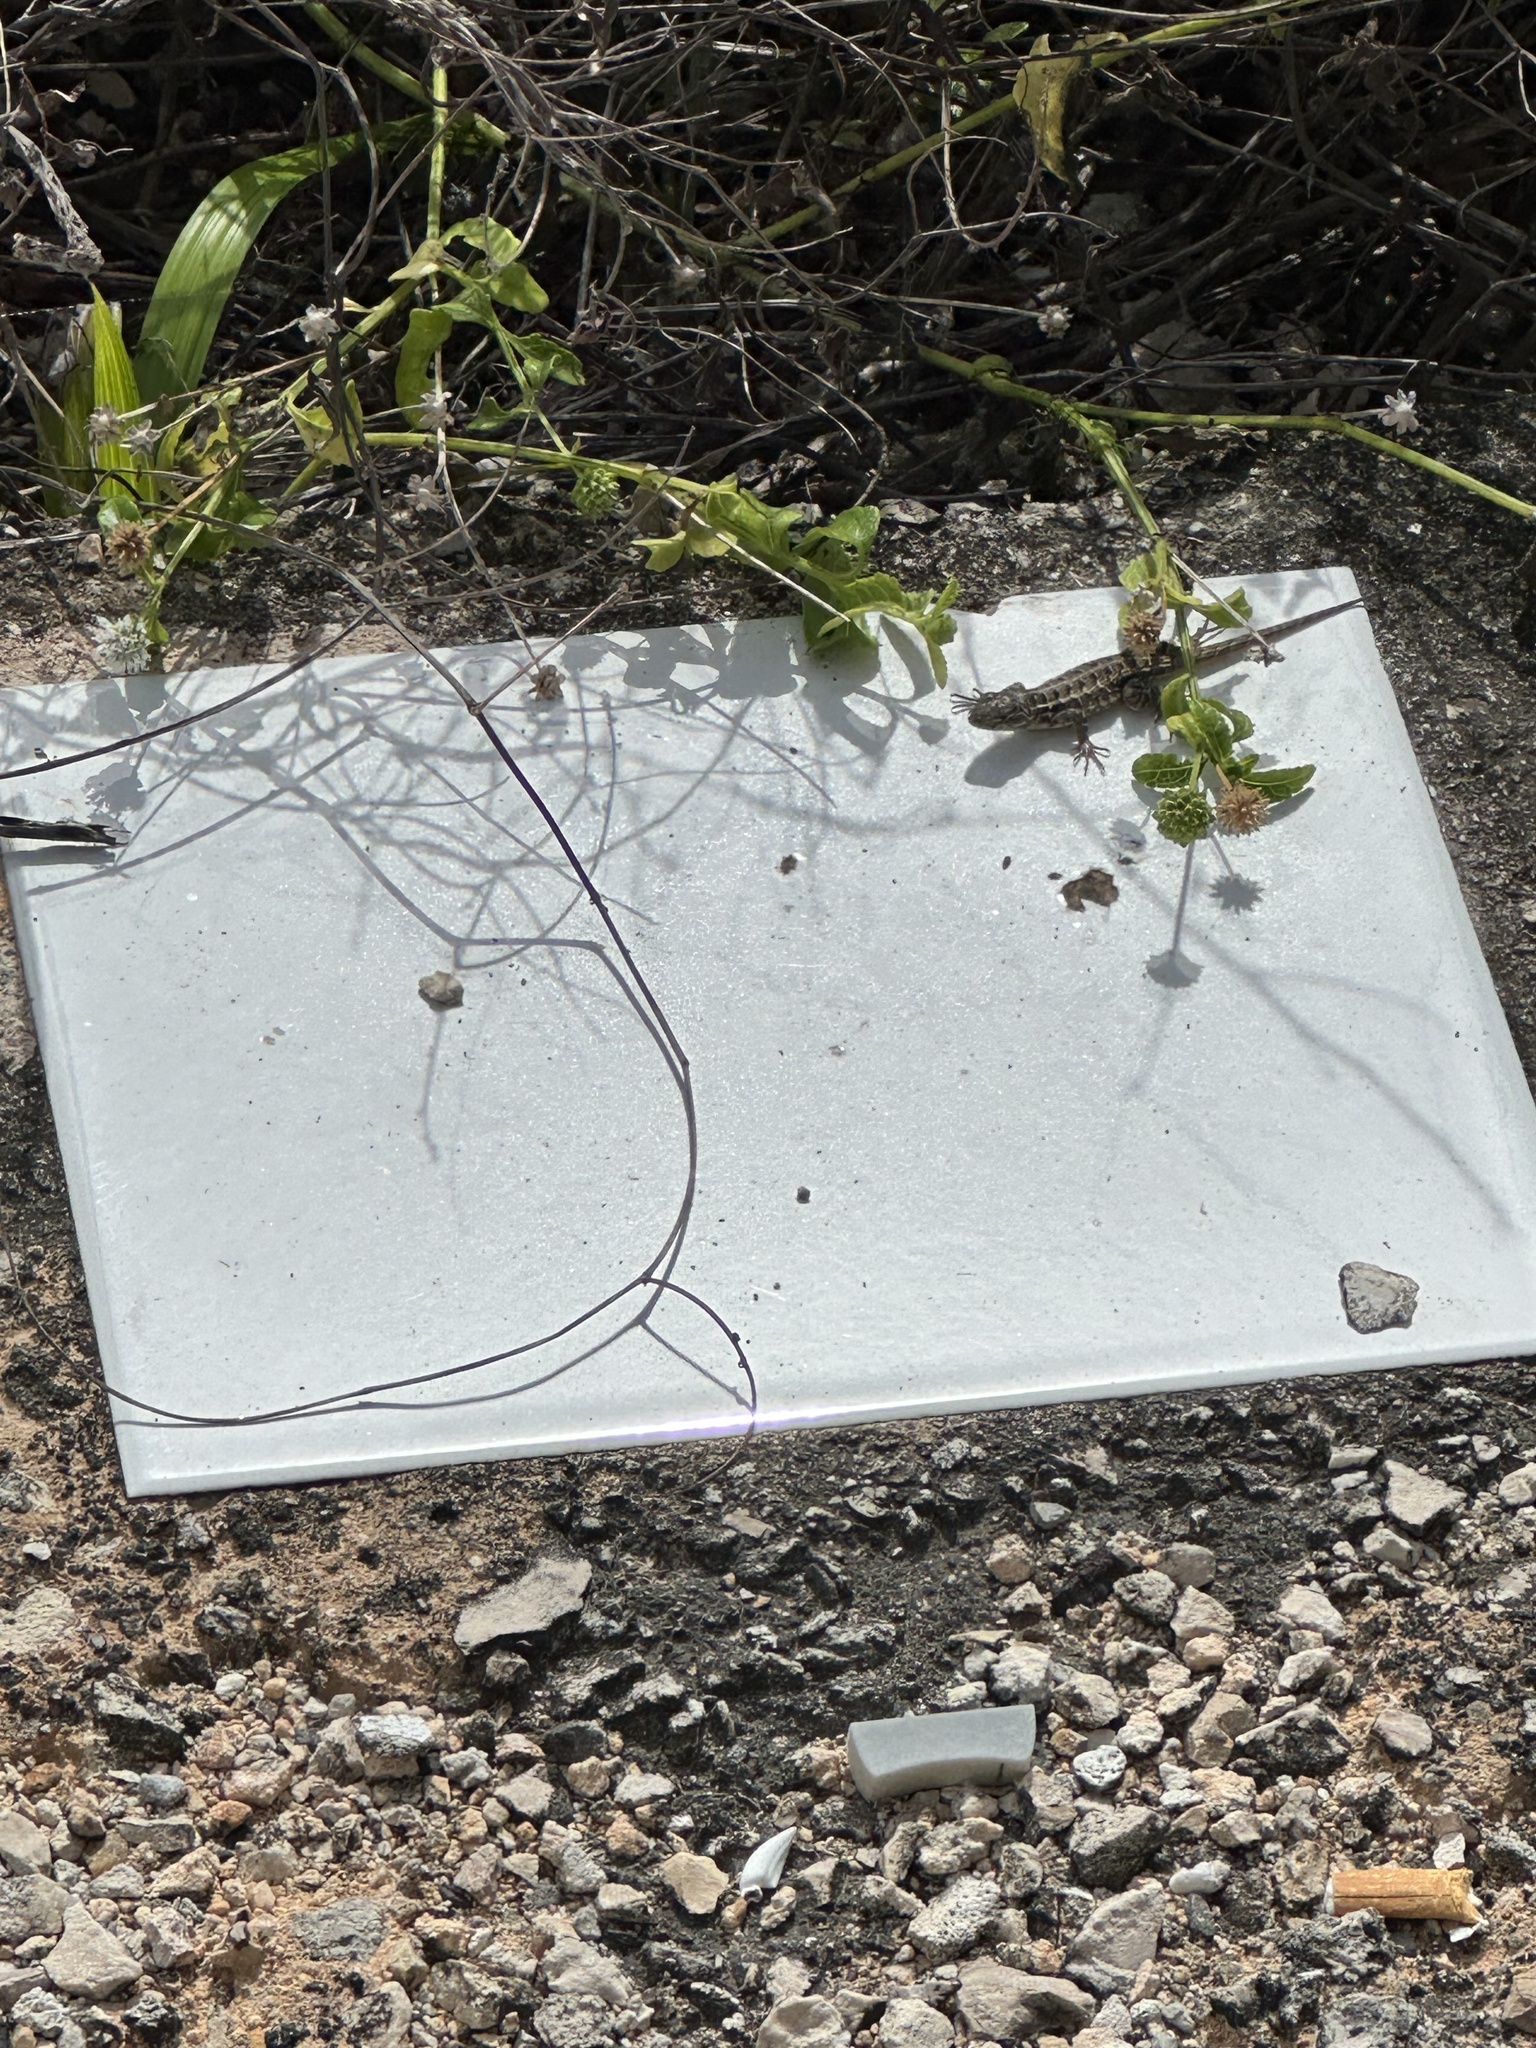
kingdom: Animalia
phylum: Chordata
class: Squamata
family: Phrynosomatidae
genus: Sceloporus
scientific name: Sceloporus cozumelae
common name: Cozumel spiny lizard
